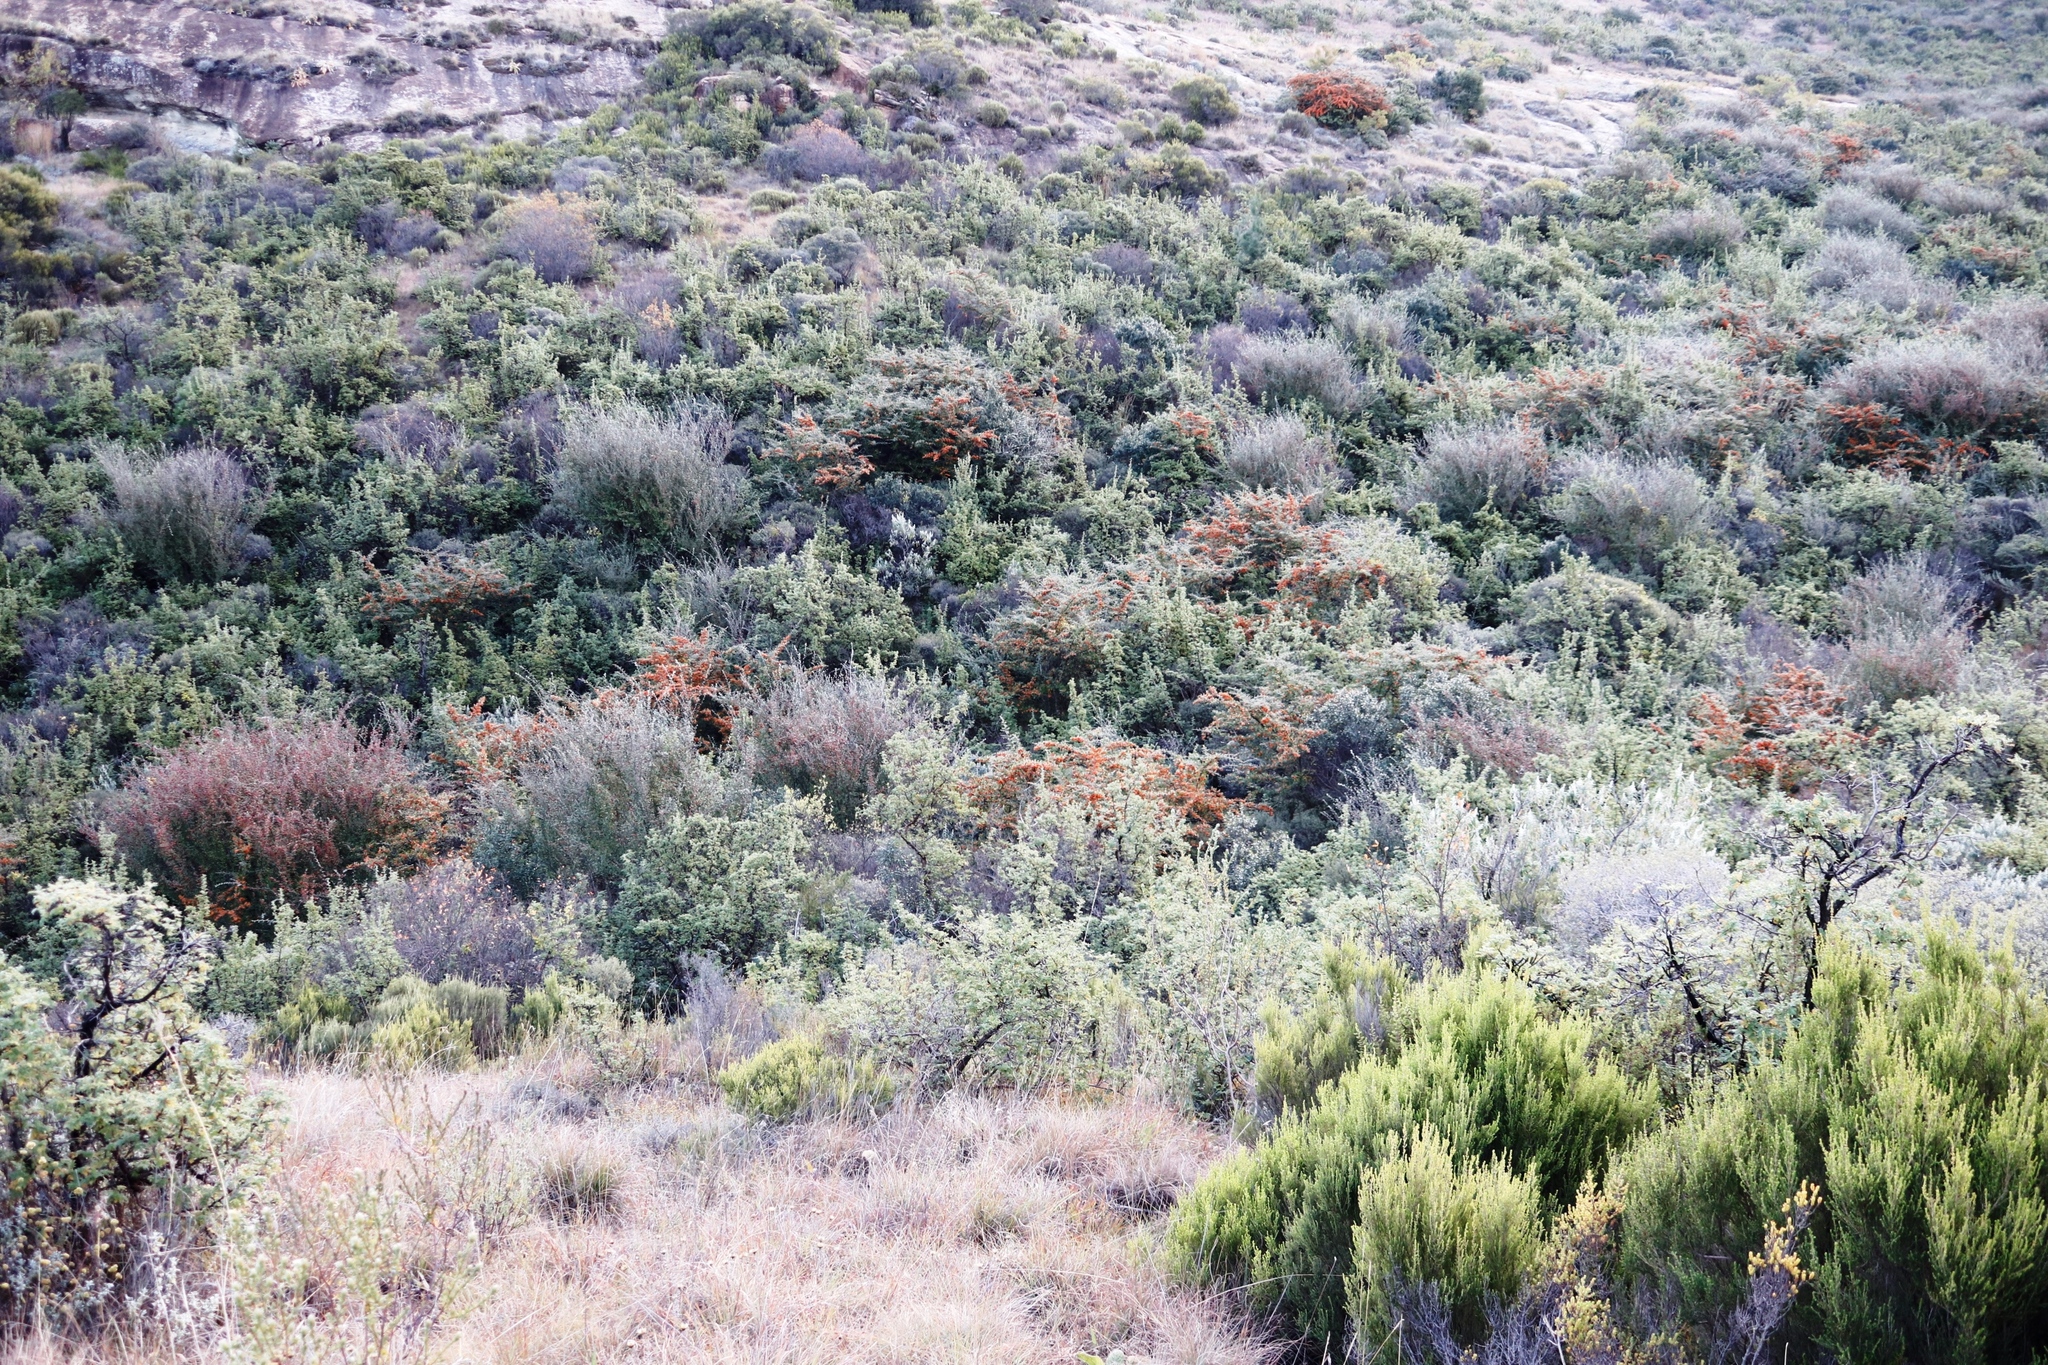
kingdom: Plantae
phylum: Tracheophyta
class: Magnoliopsida
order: Rosales
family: Rosaceae
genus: Cotoneaster
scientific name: Cotoneaster pannosus
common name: Silverleaf cotoneaster
